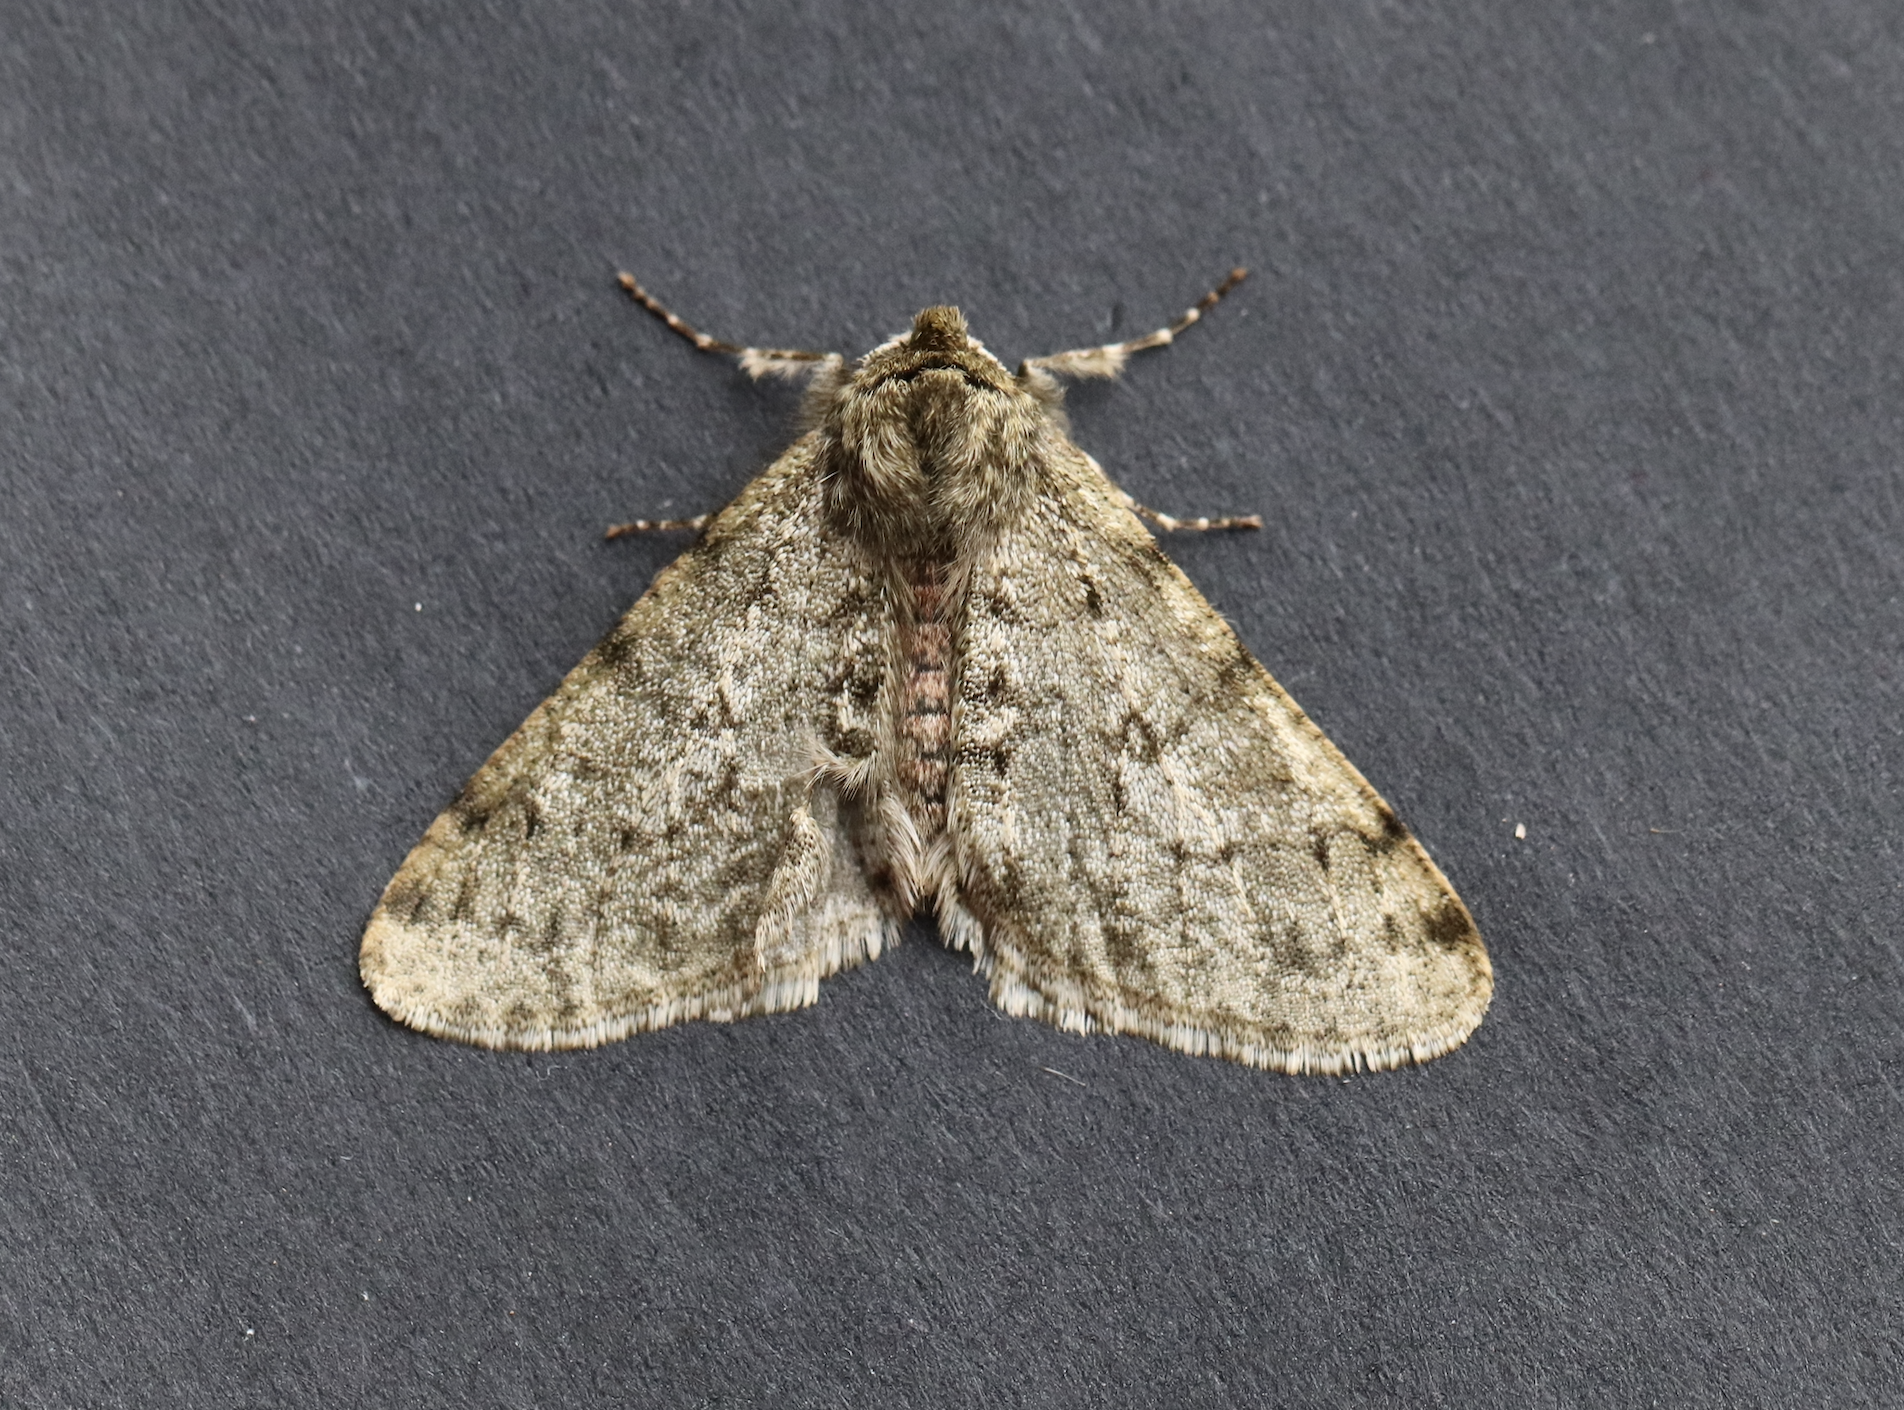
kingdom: Animalia
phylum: Arthropoda
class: Insecta
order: Lepidoptera
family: Geometridae
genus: Phigalia
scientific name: Phigalia pilosaria
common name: Pale brindled beauty
